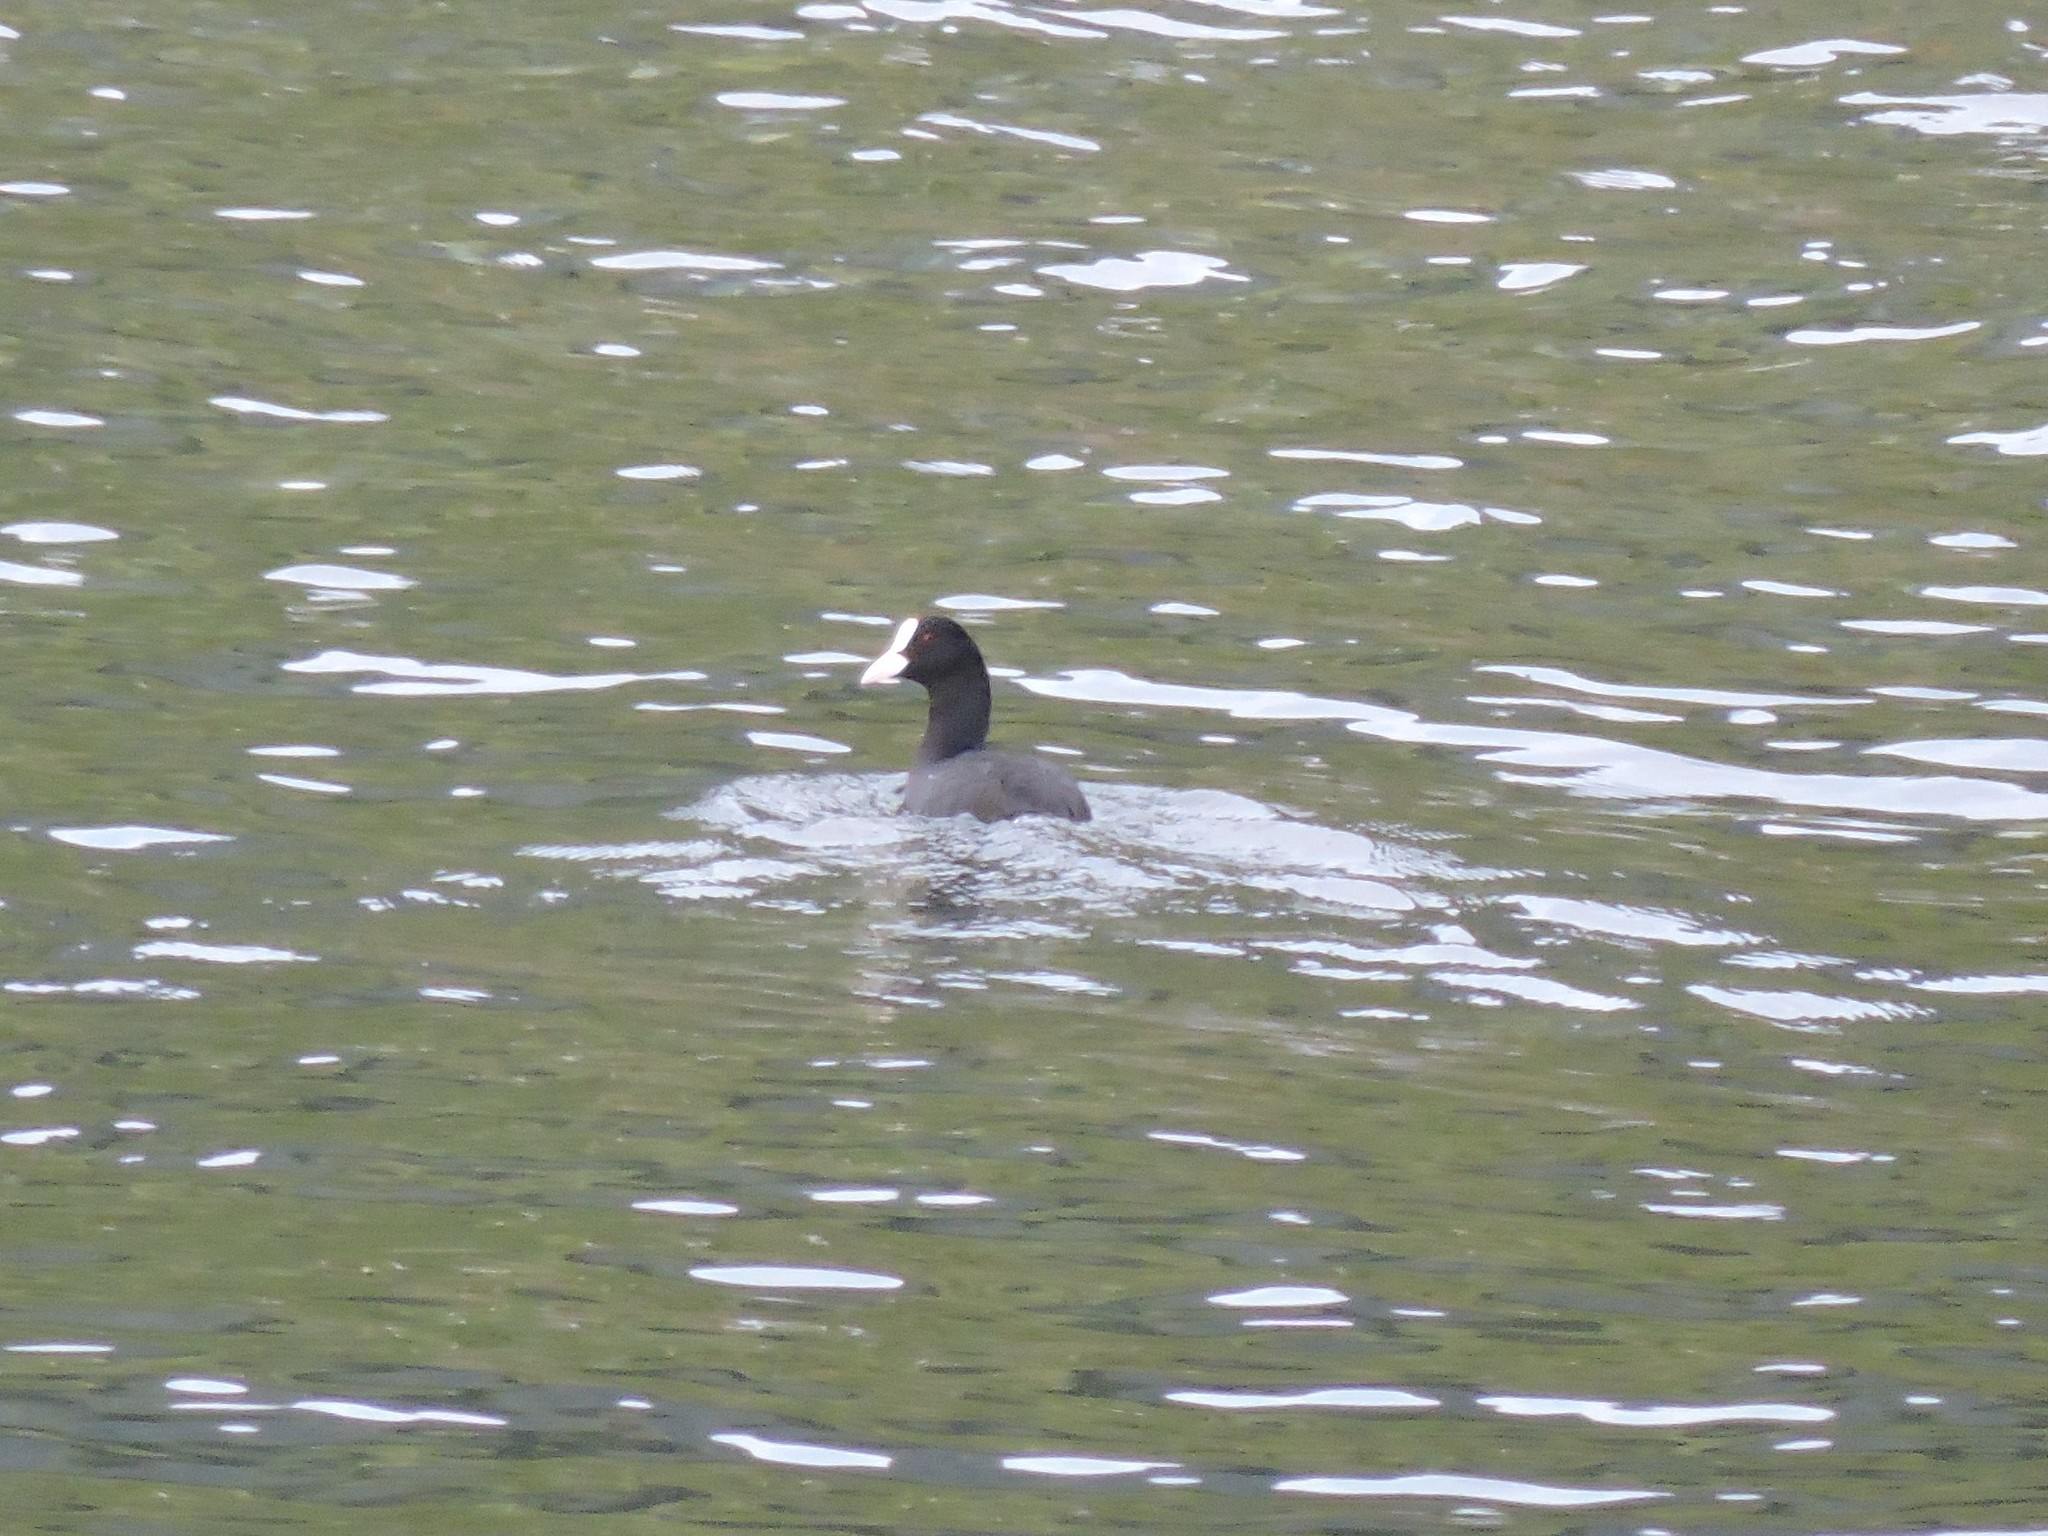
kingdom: Animalia
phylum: Chordata
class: Aves
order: Gruiformes
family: Rallidae
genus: Fulica
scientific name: Fulica atra
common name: Eurasian coot
